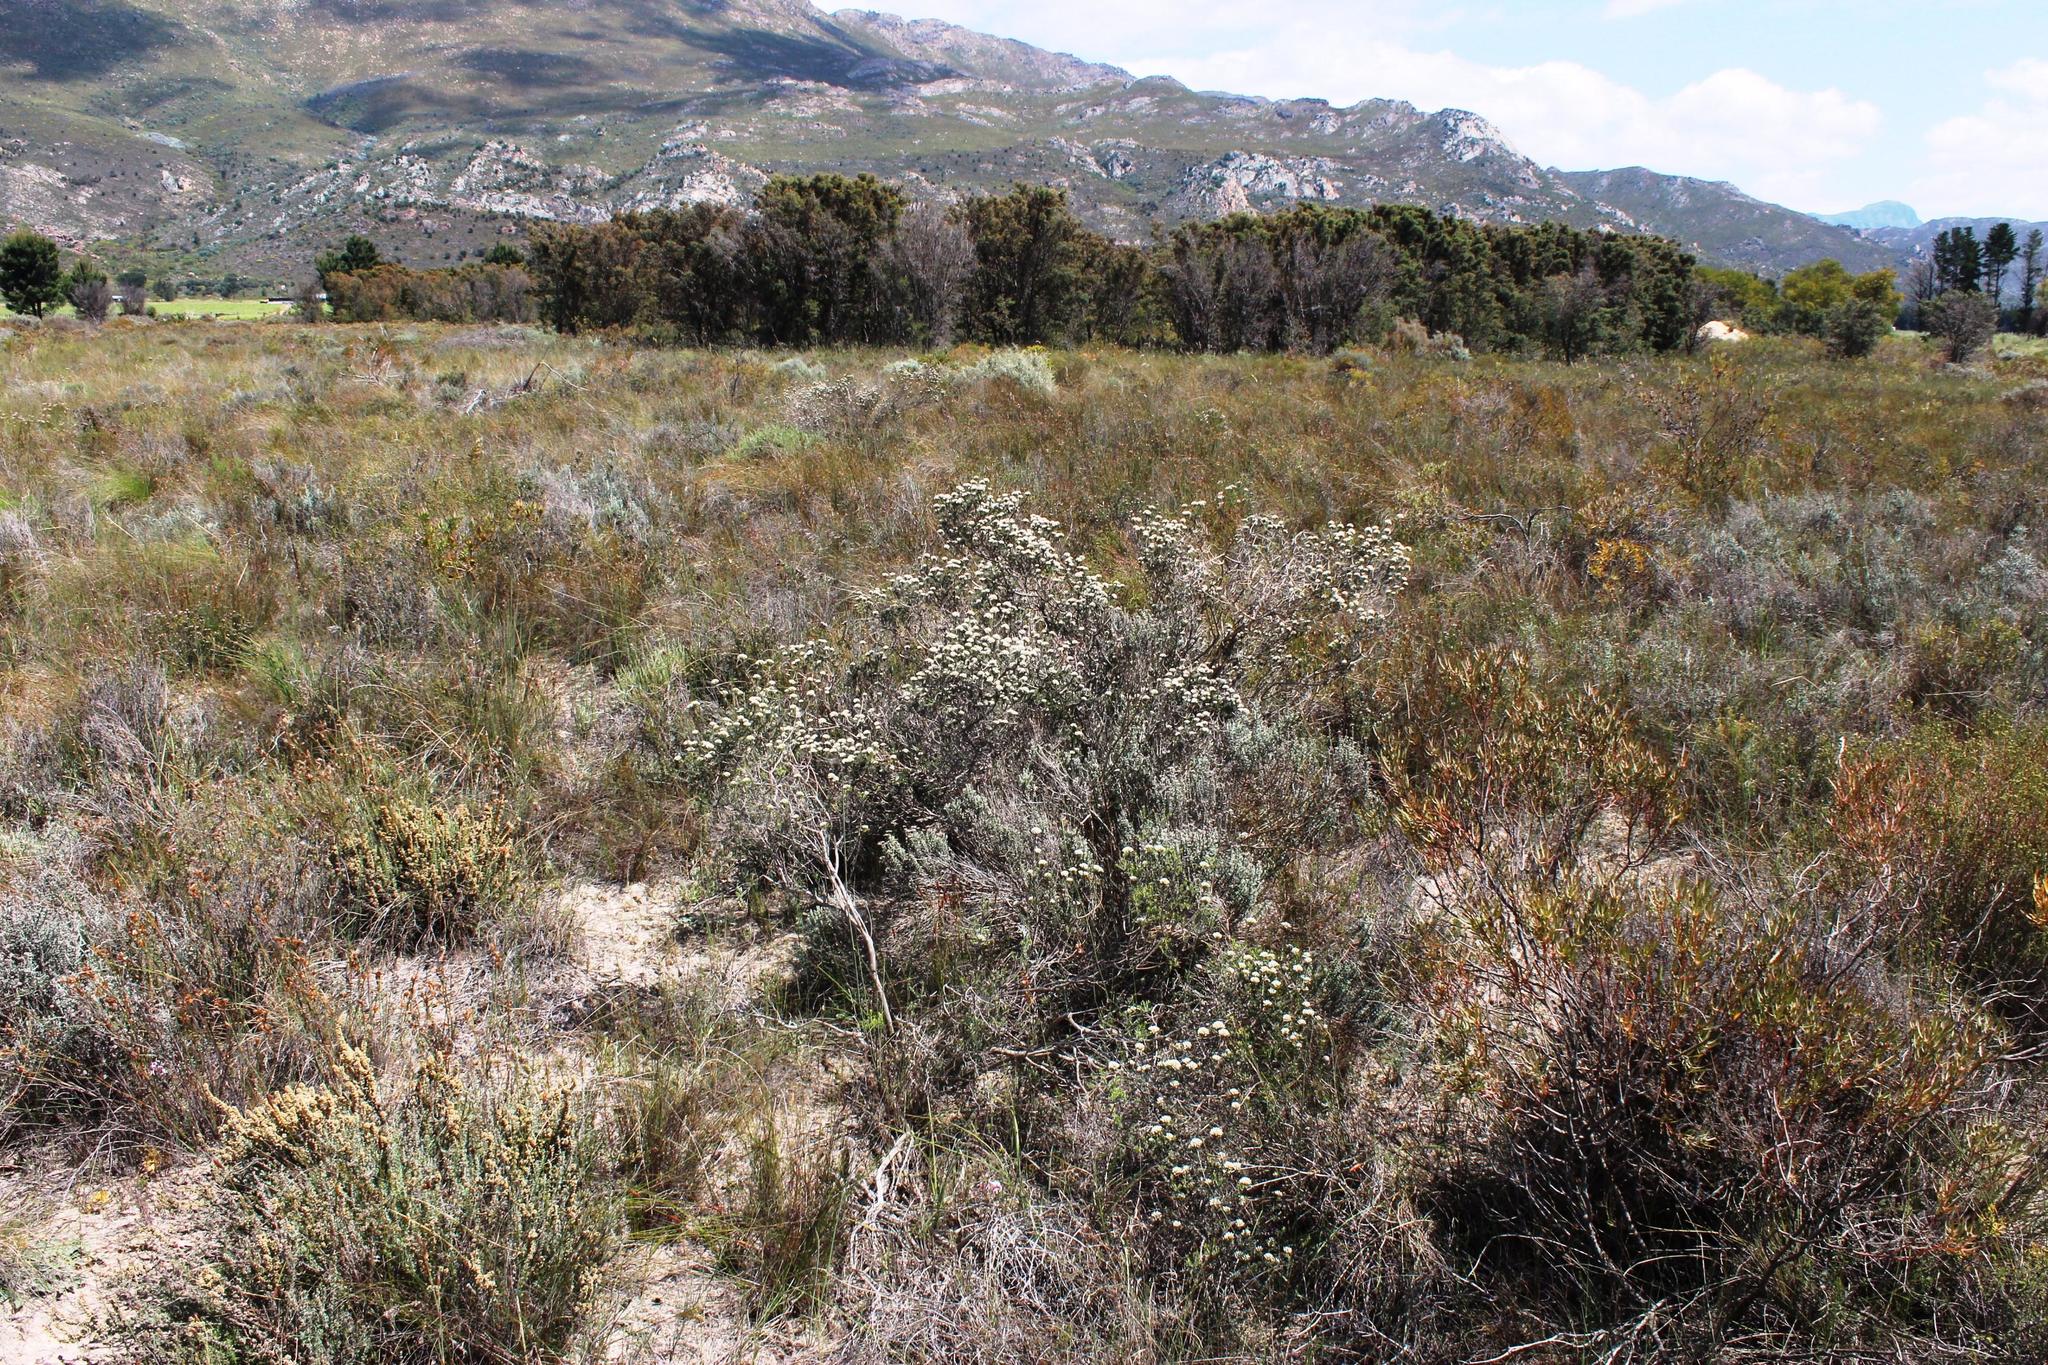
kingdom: Plantae
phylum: Tracheophyta
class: Magnoliopsida
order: Asterales
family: Asteraceae
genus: Metalasia
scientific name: Metalasia adunca
